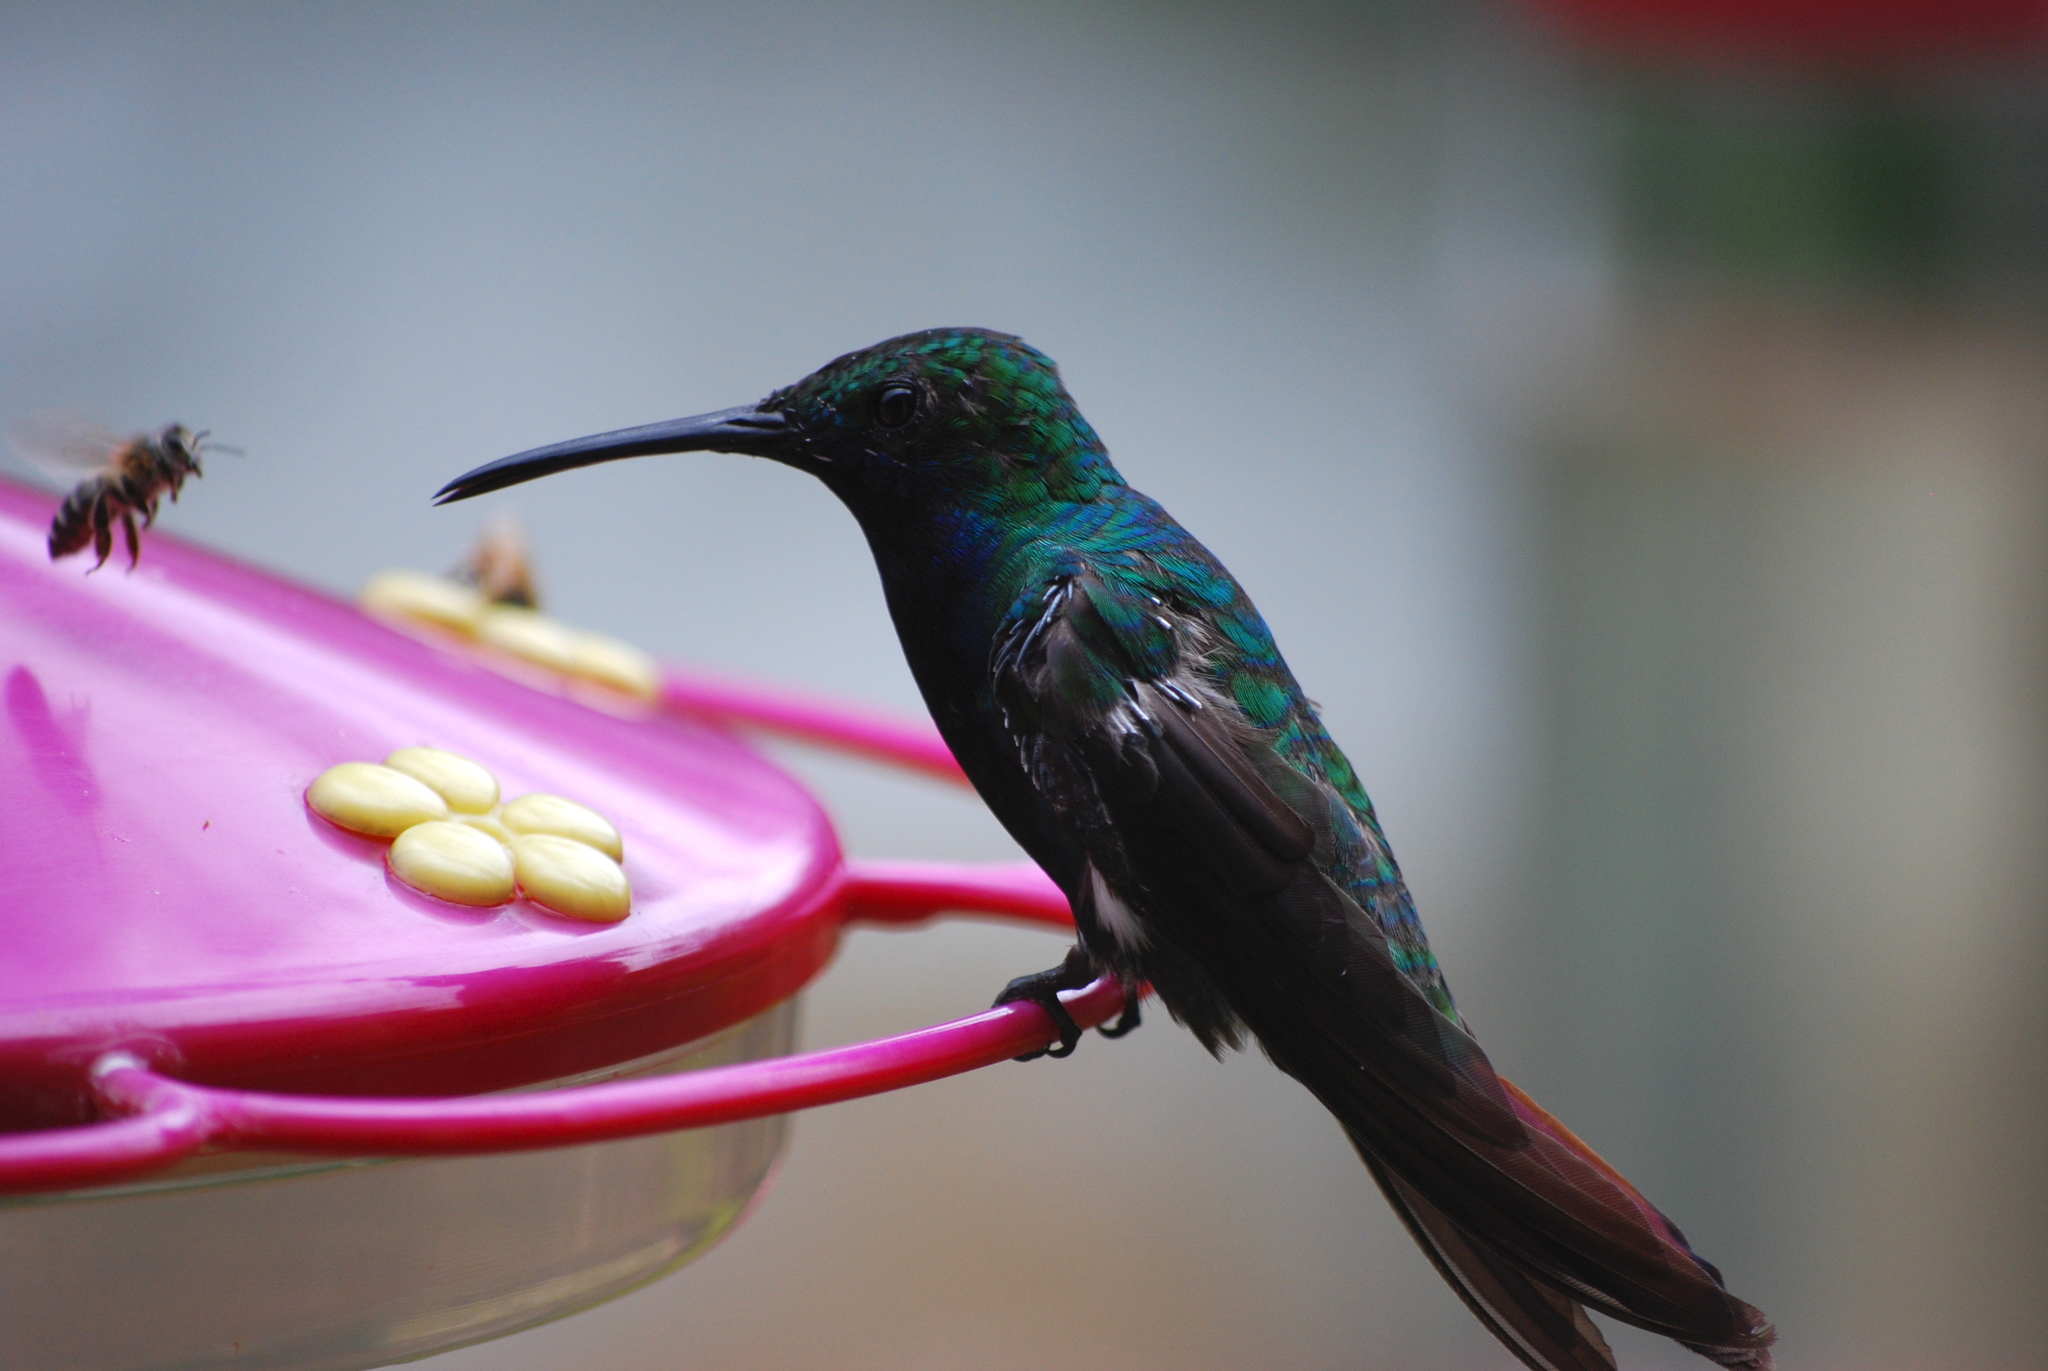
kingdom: Animalia
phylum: Chordata
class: Aves
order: Apodiformes
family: Trochilidae
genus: Colibri
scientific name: Colibri coruscans
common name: Sparkling violetear
